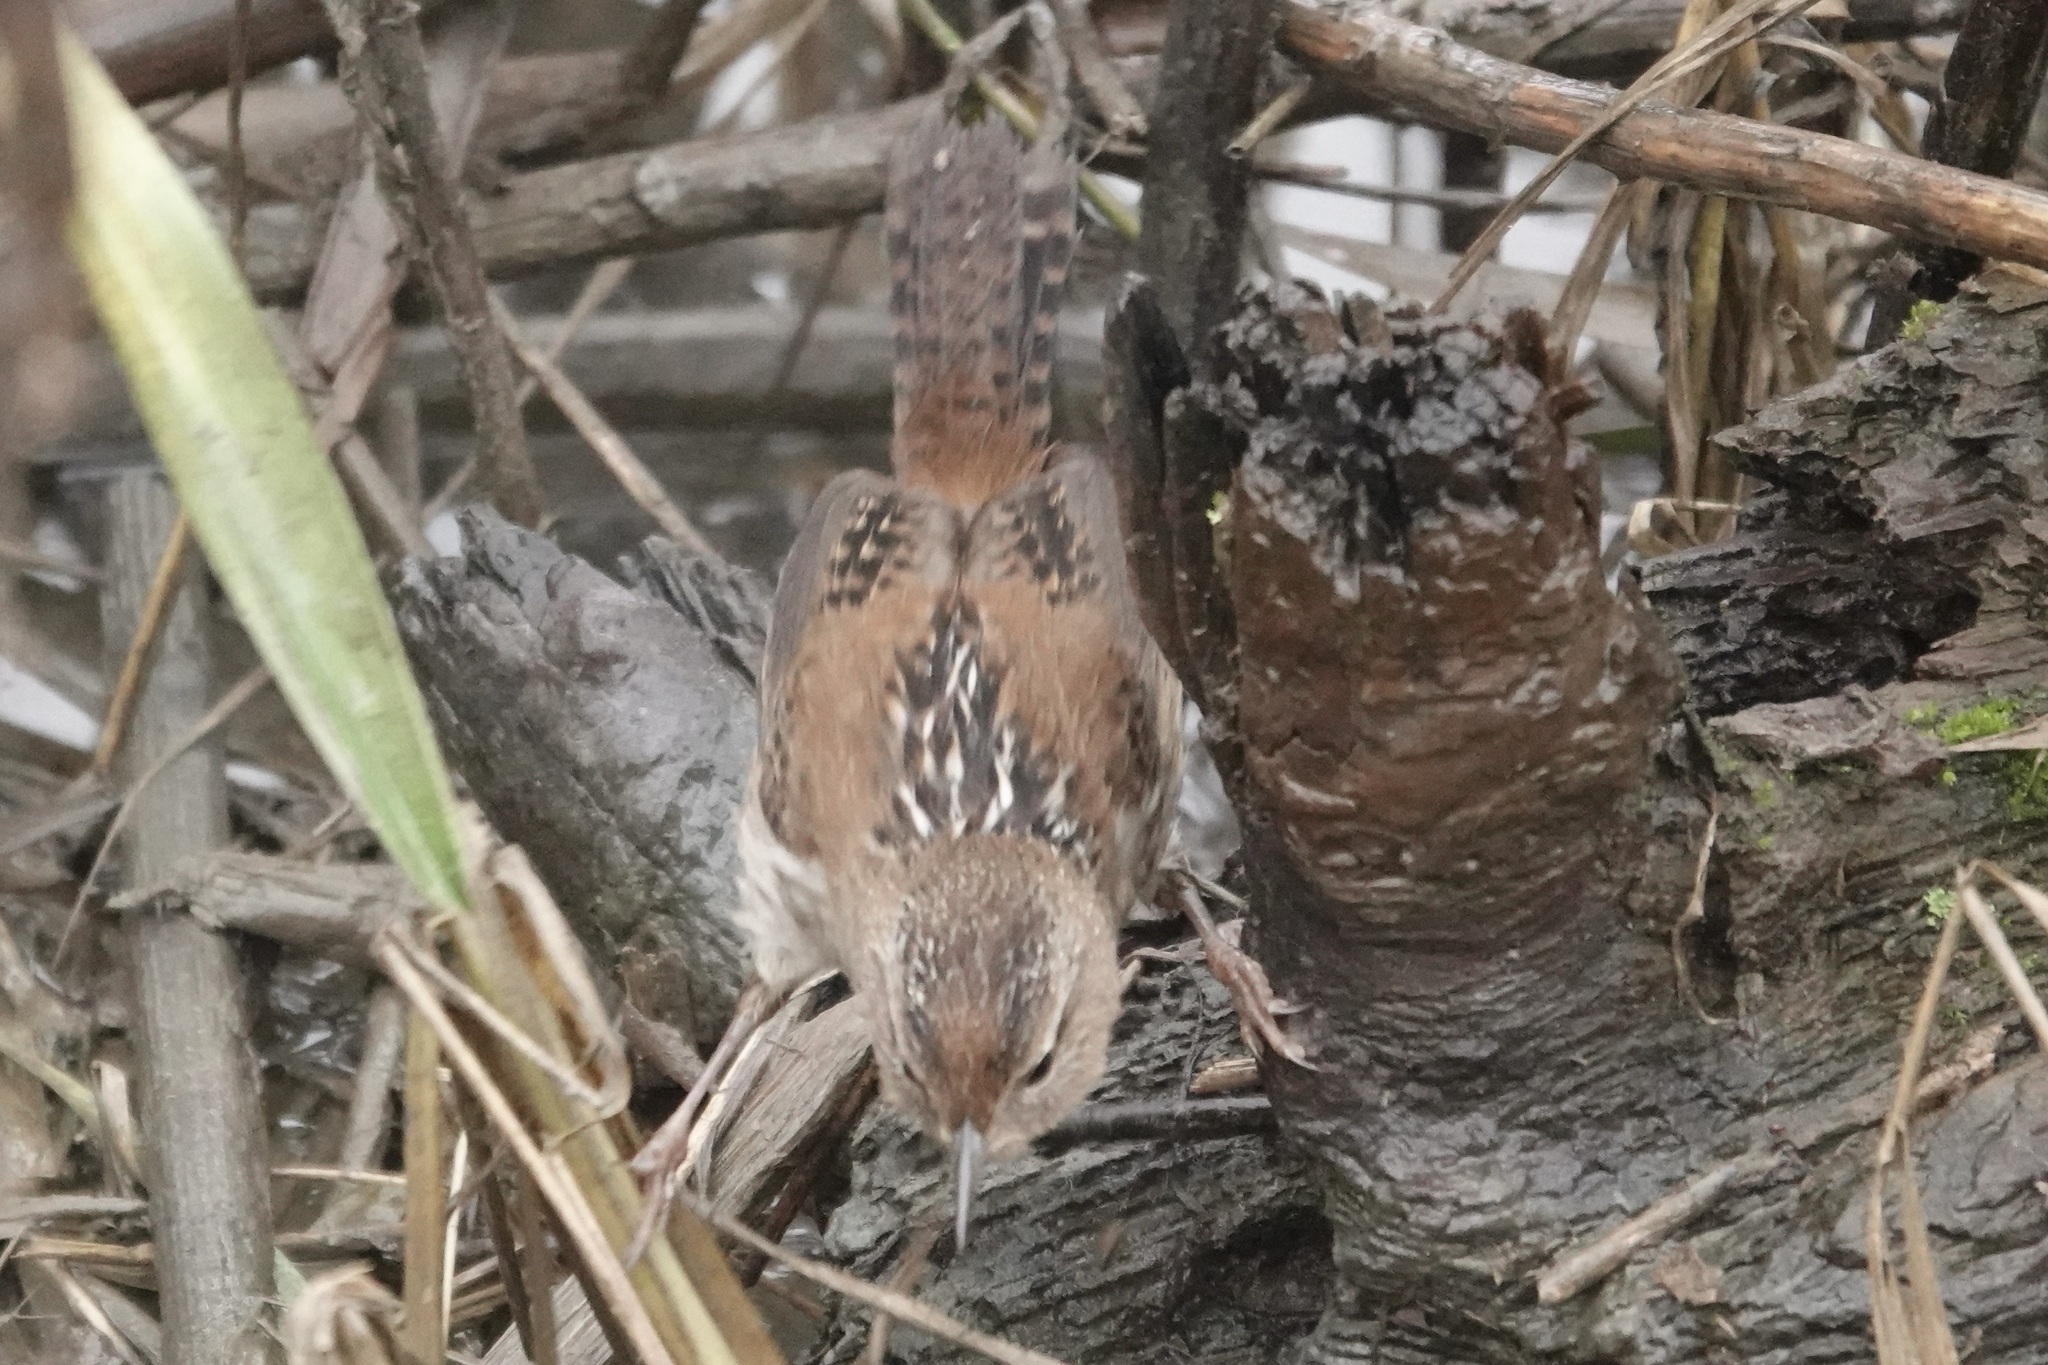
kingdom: Animalia
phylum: Chordata
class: Aves
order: Passeriformes
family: Troglodytidae
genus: Cistothorus
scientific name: Cistothorus palustris
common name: Marsh wren
